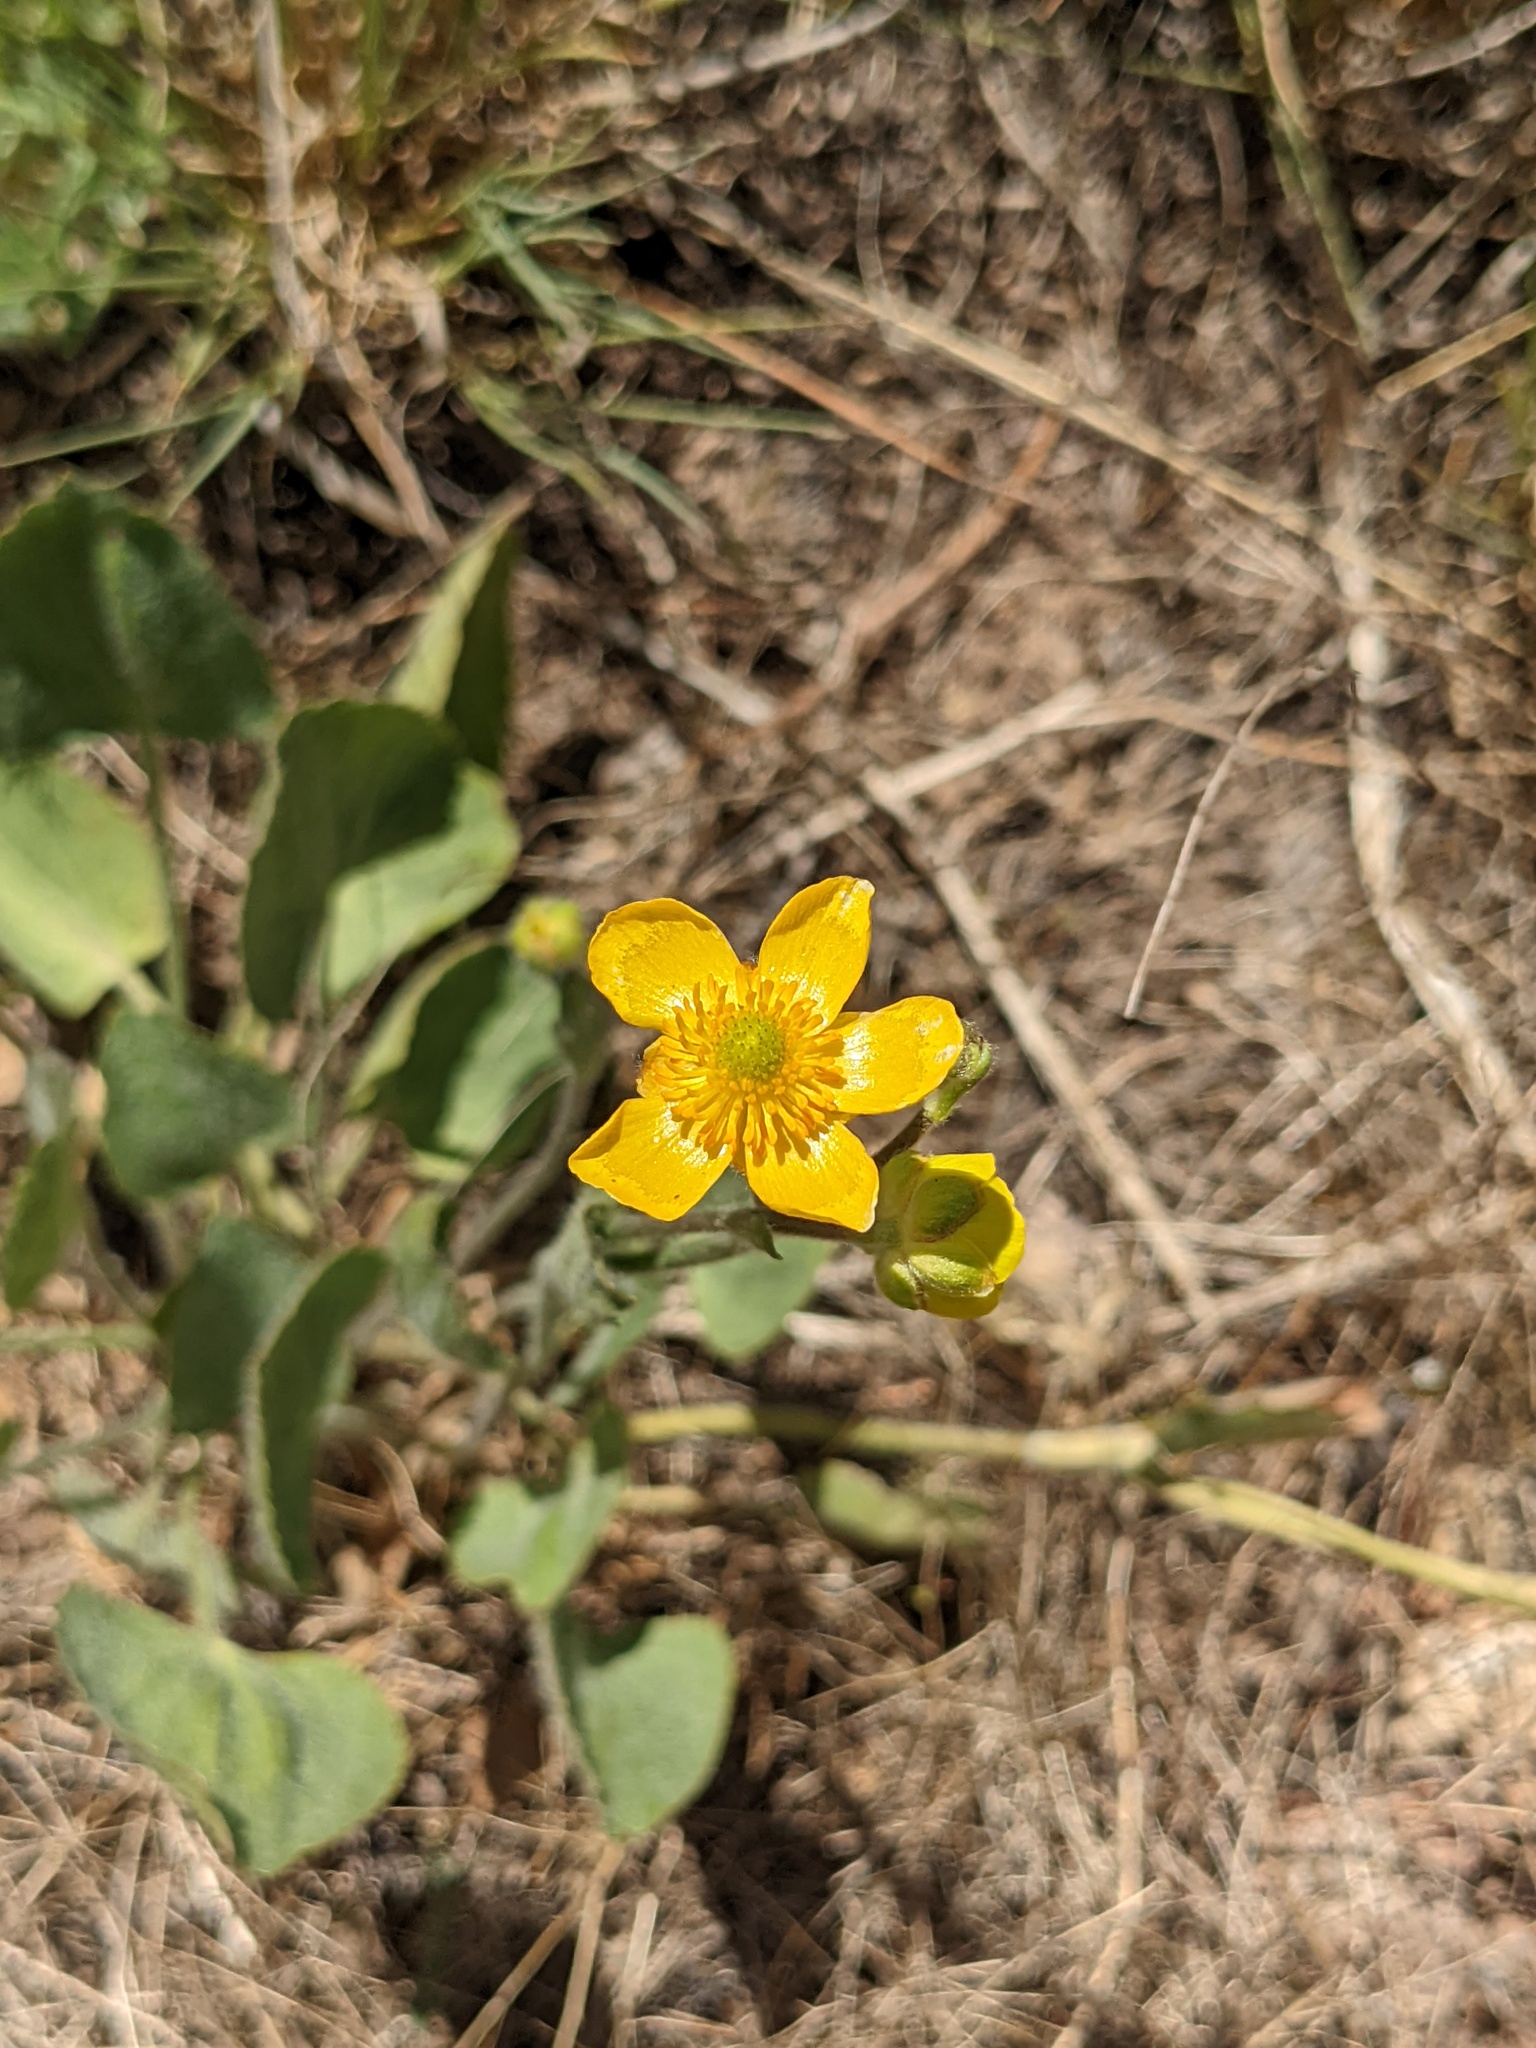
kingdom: Plantae
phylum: Tracheophyta
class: Magnoliopsida
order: Ranunculales
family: Ranunculaceae
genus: Halerpestes
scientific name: Halerpestes cymbalaria
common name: Seaside crowfoot
